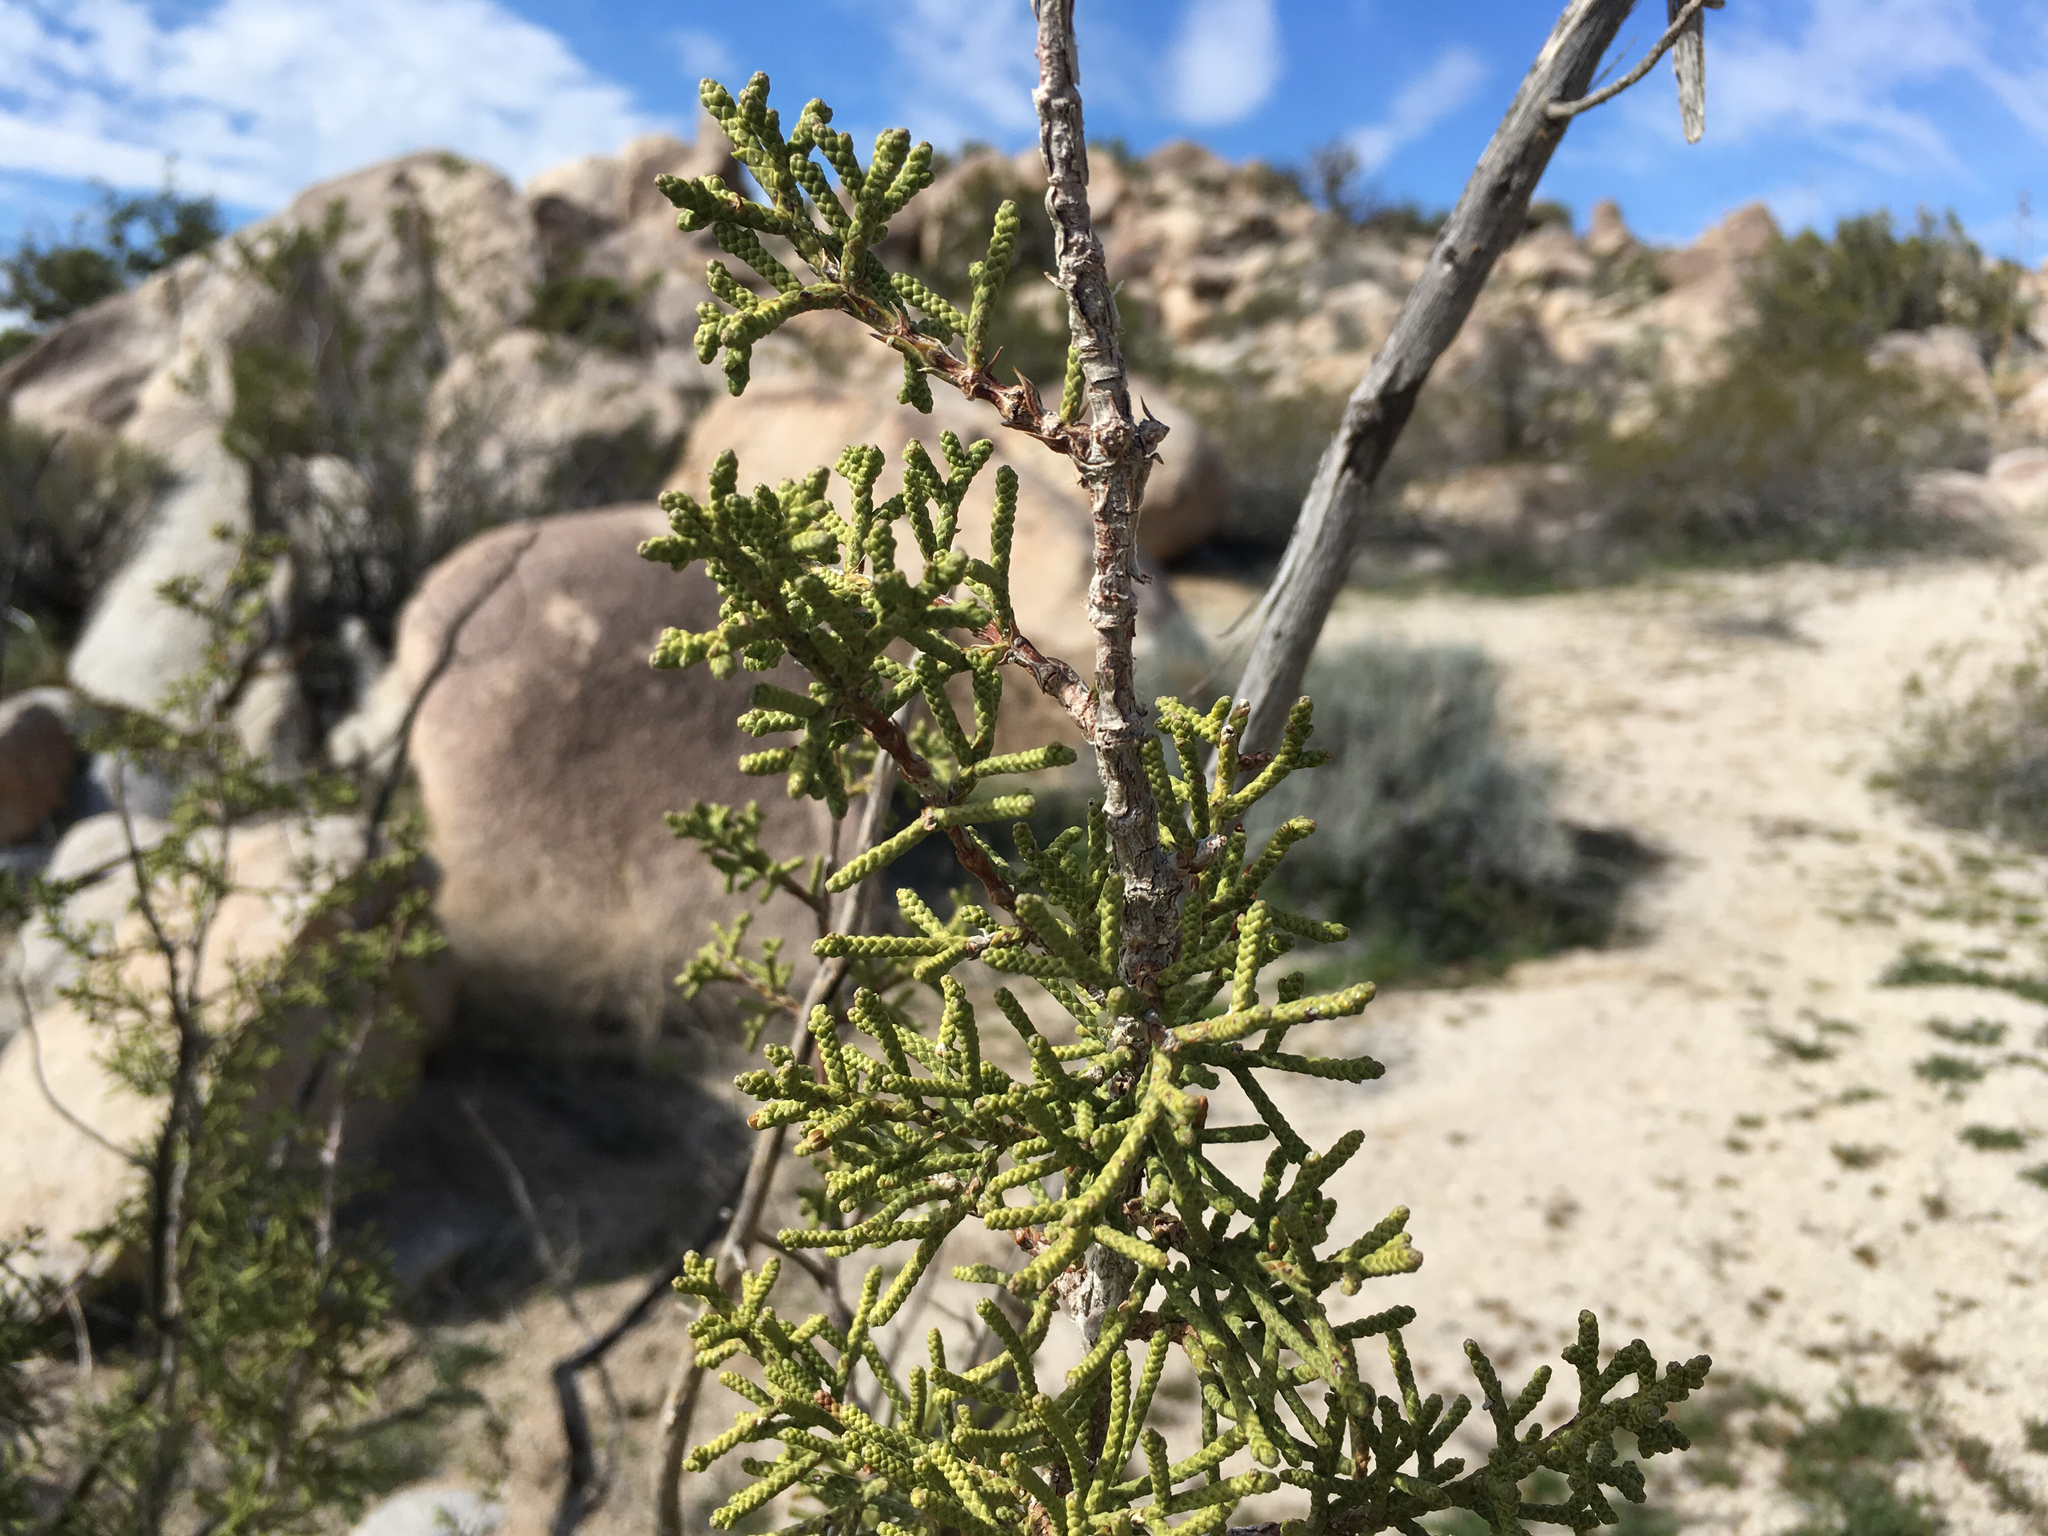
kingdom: Plantae
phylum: Tracheophyta
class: Pinopsida
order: Pinales
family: Cupressaceae
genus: Juniperus
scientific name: Juniperus californica
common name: California juniper
